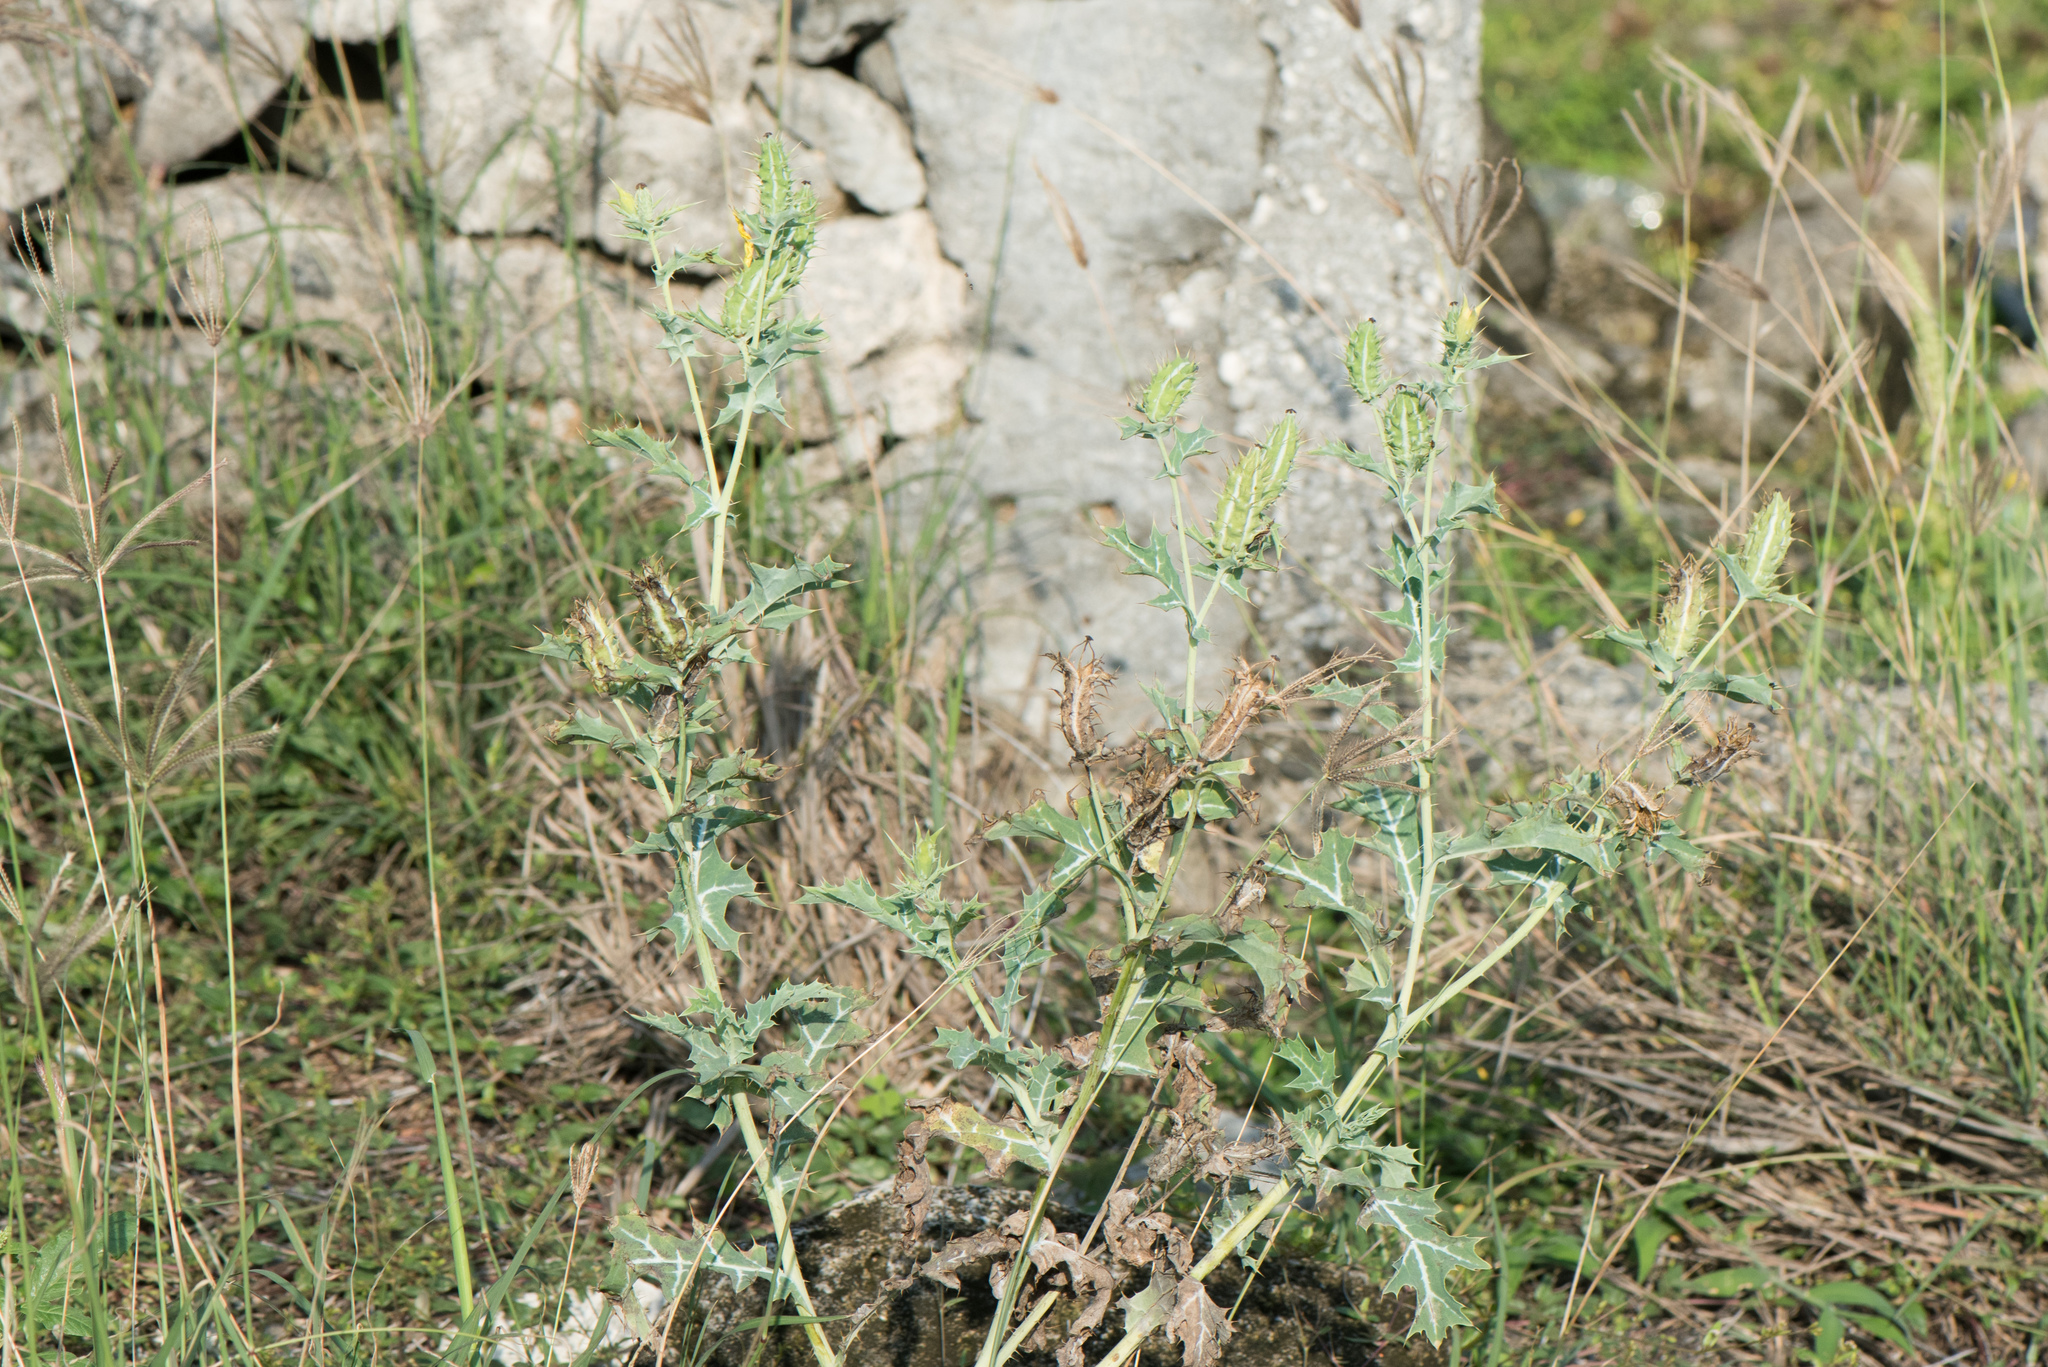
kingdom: Plantae
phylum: Tracheophyta
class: Magnoliopsida
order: Ranunculales
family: Papaveraceae
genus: Argemone
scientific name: Argemone mexicana
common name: Mexican poppy
